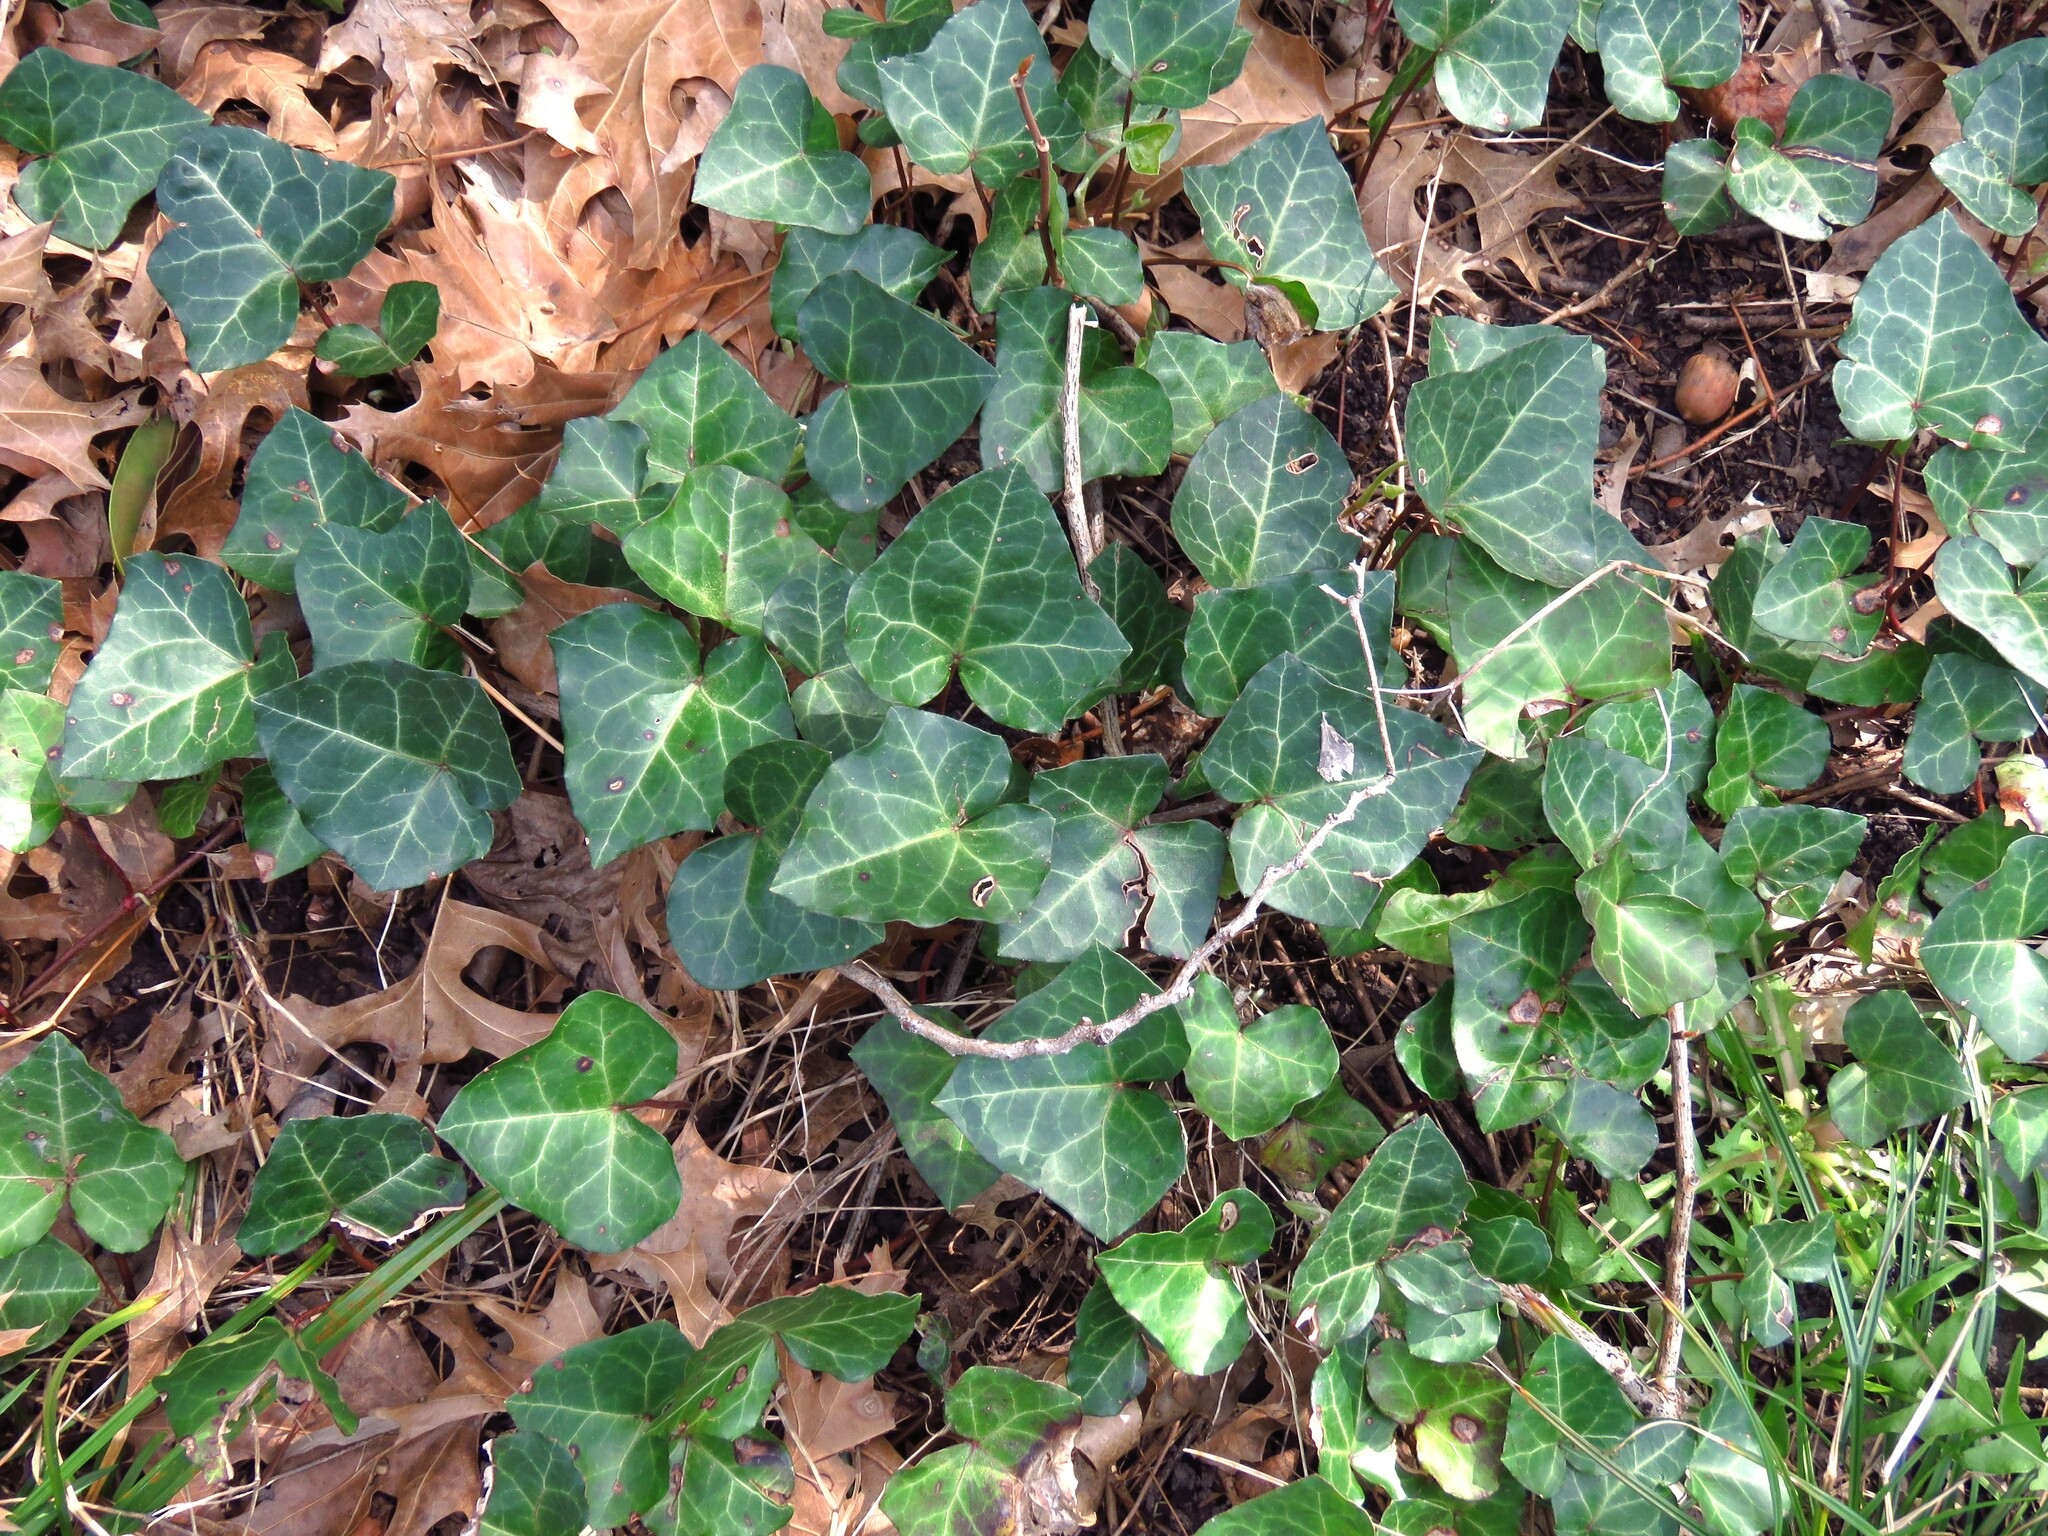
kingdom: Plantae
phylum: Tracheophyta
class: Magnoliopsida
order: Apiales
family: Araliaceae
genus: Hedera
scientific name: Hedera helix
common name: Ivy
